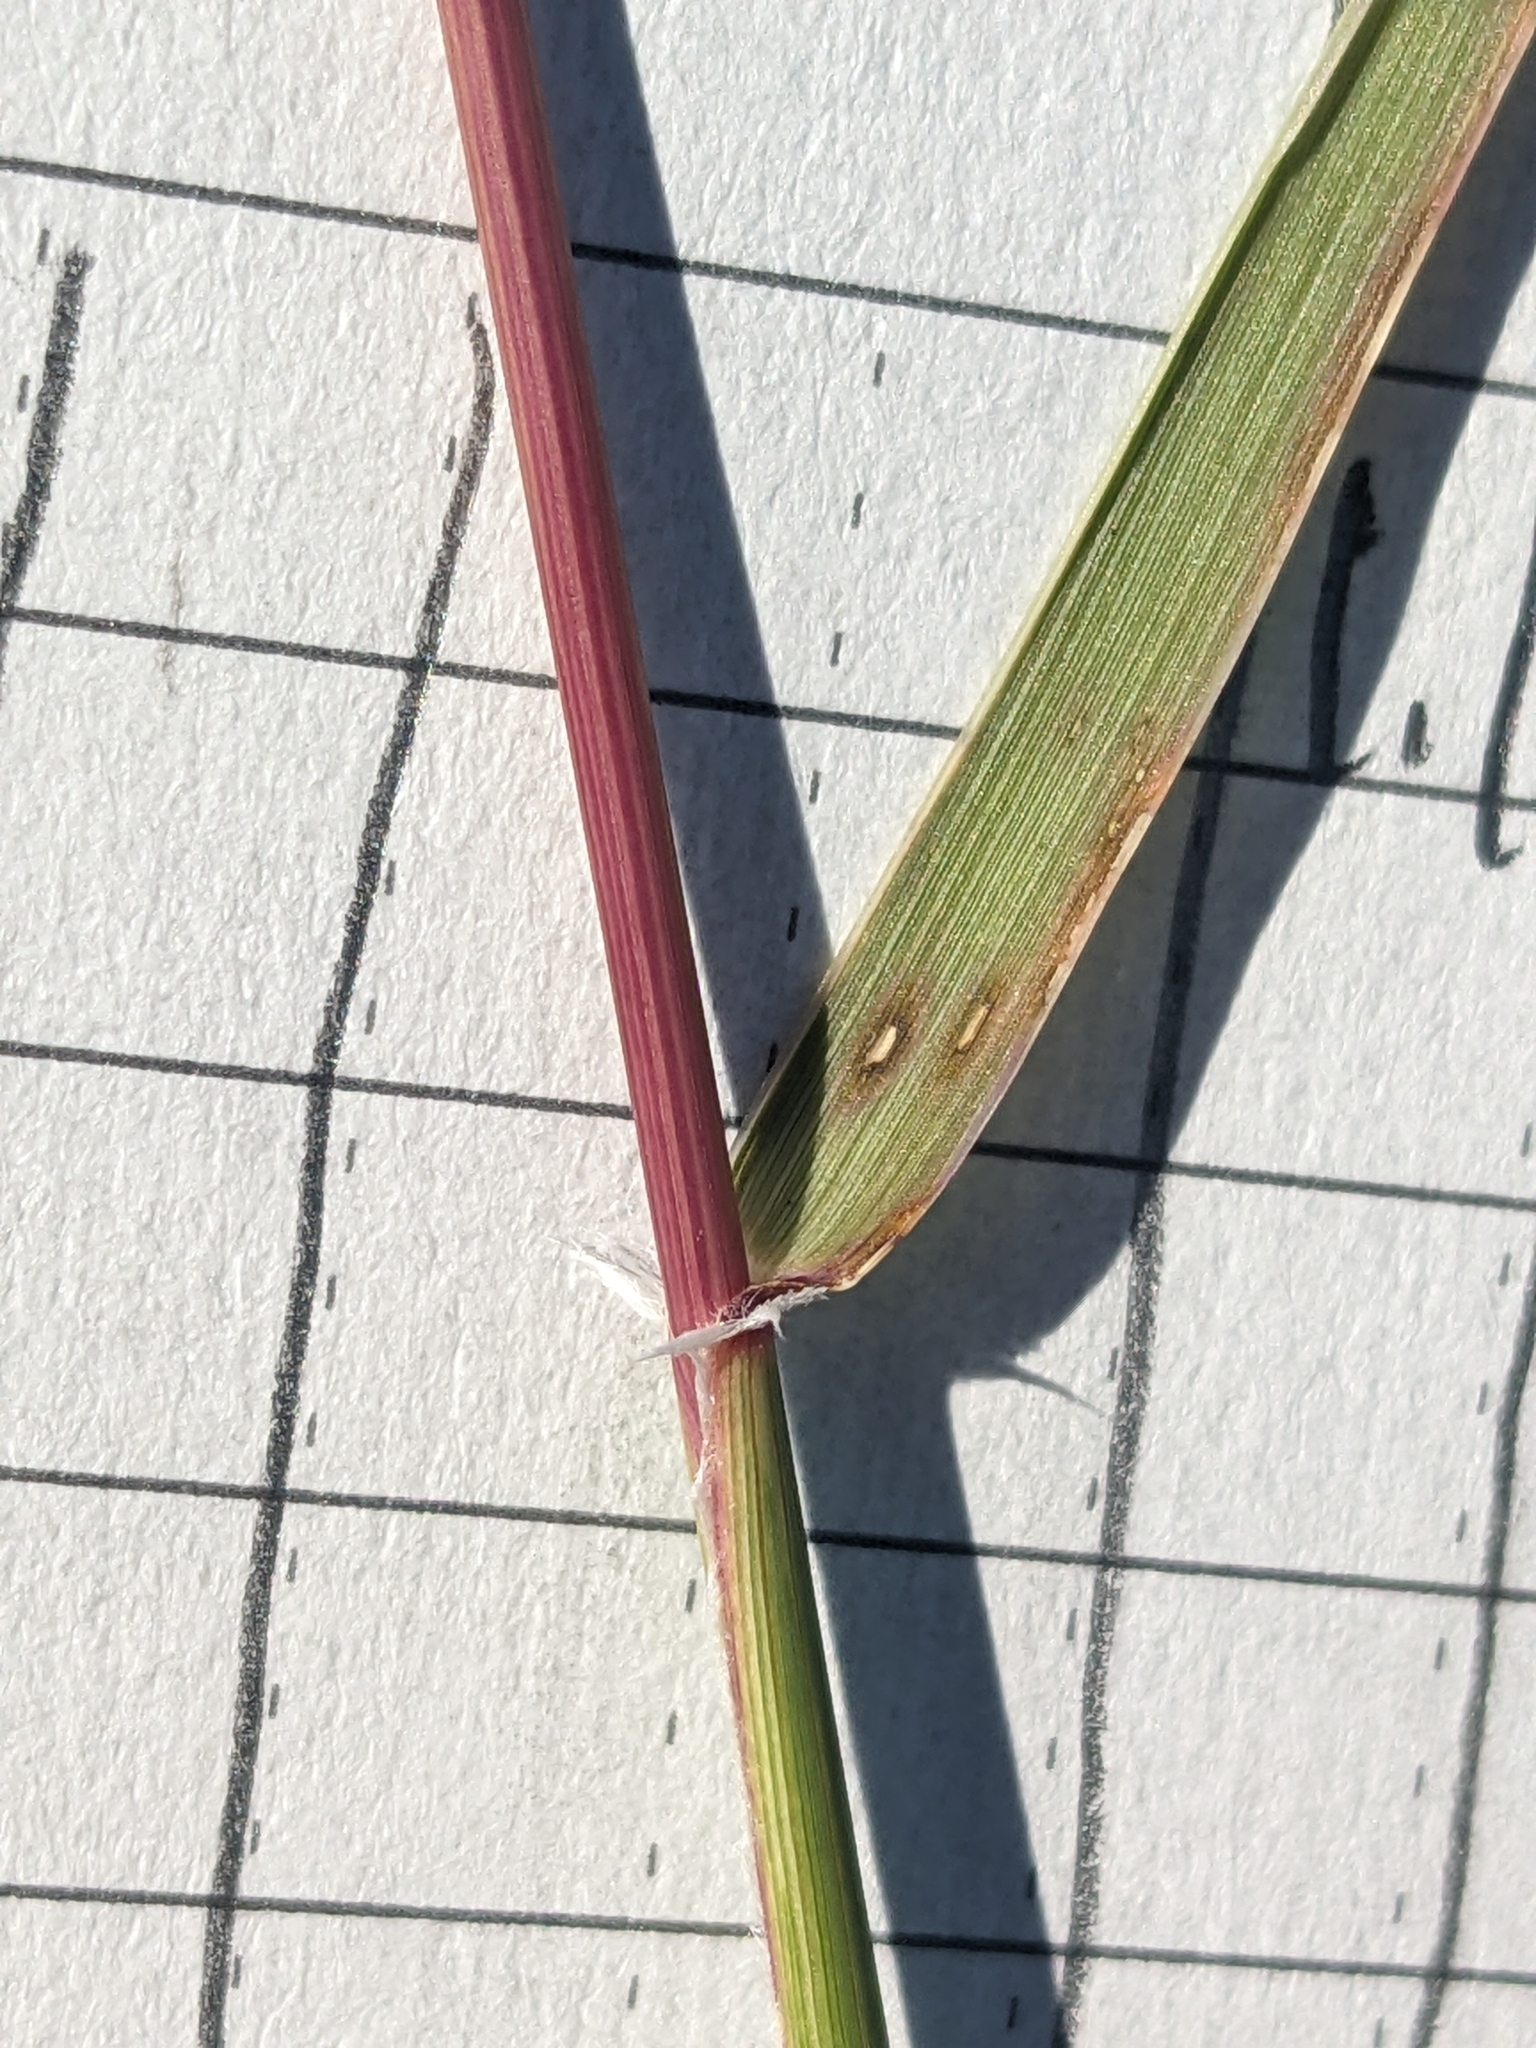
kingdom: Plantae
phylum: Tracheophyta
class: Liliopsida
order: Poales
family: Poaceae
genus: Sporobolus
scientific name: Sporobolus cryptandrus
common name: Sand dropseed
